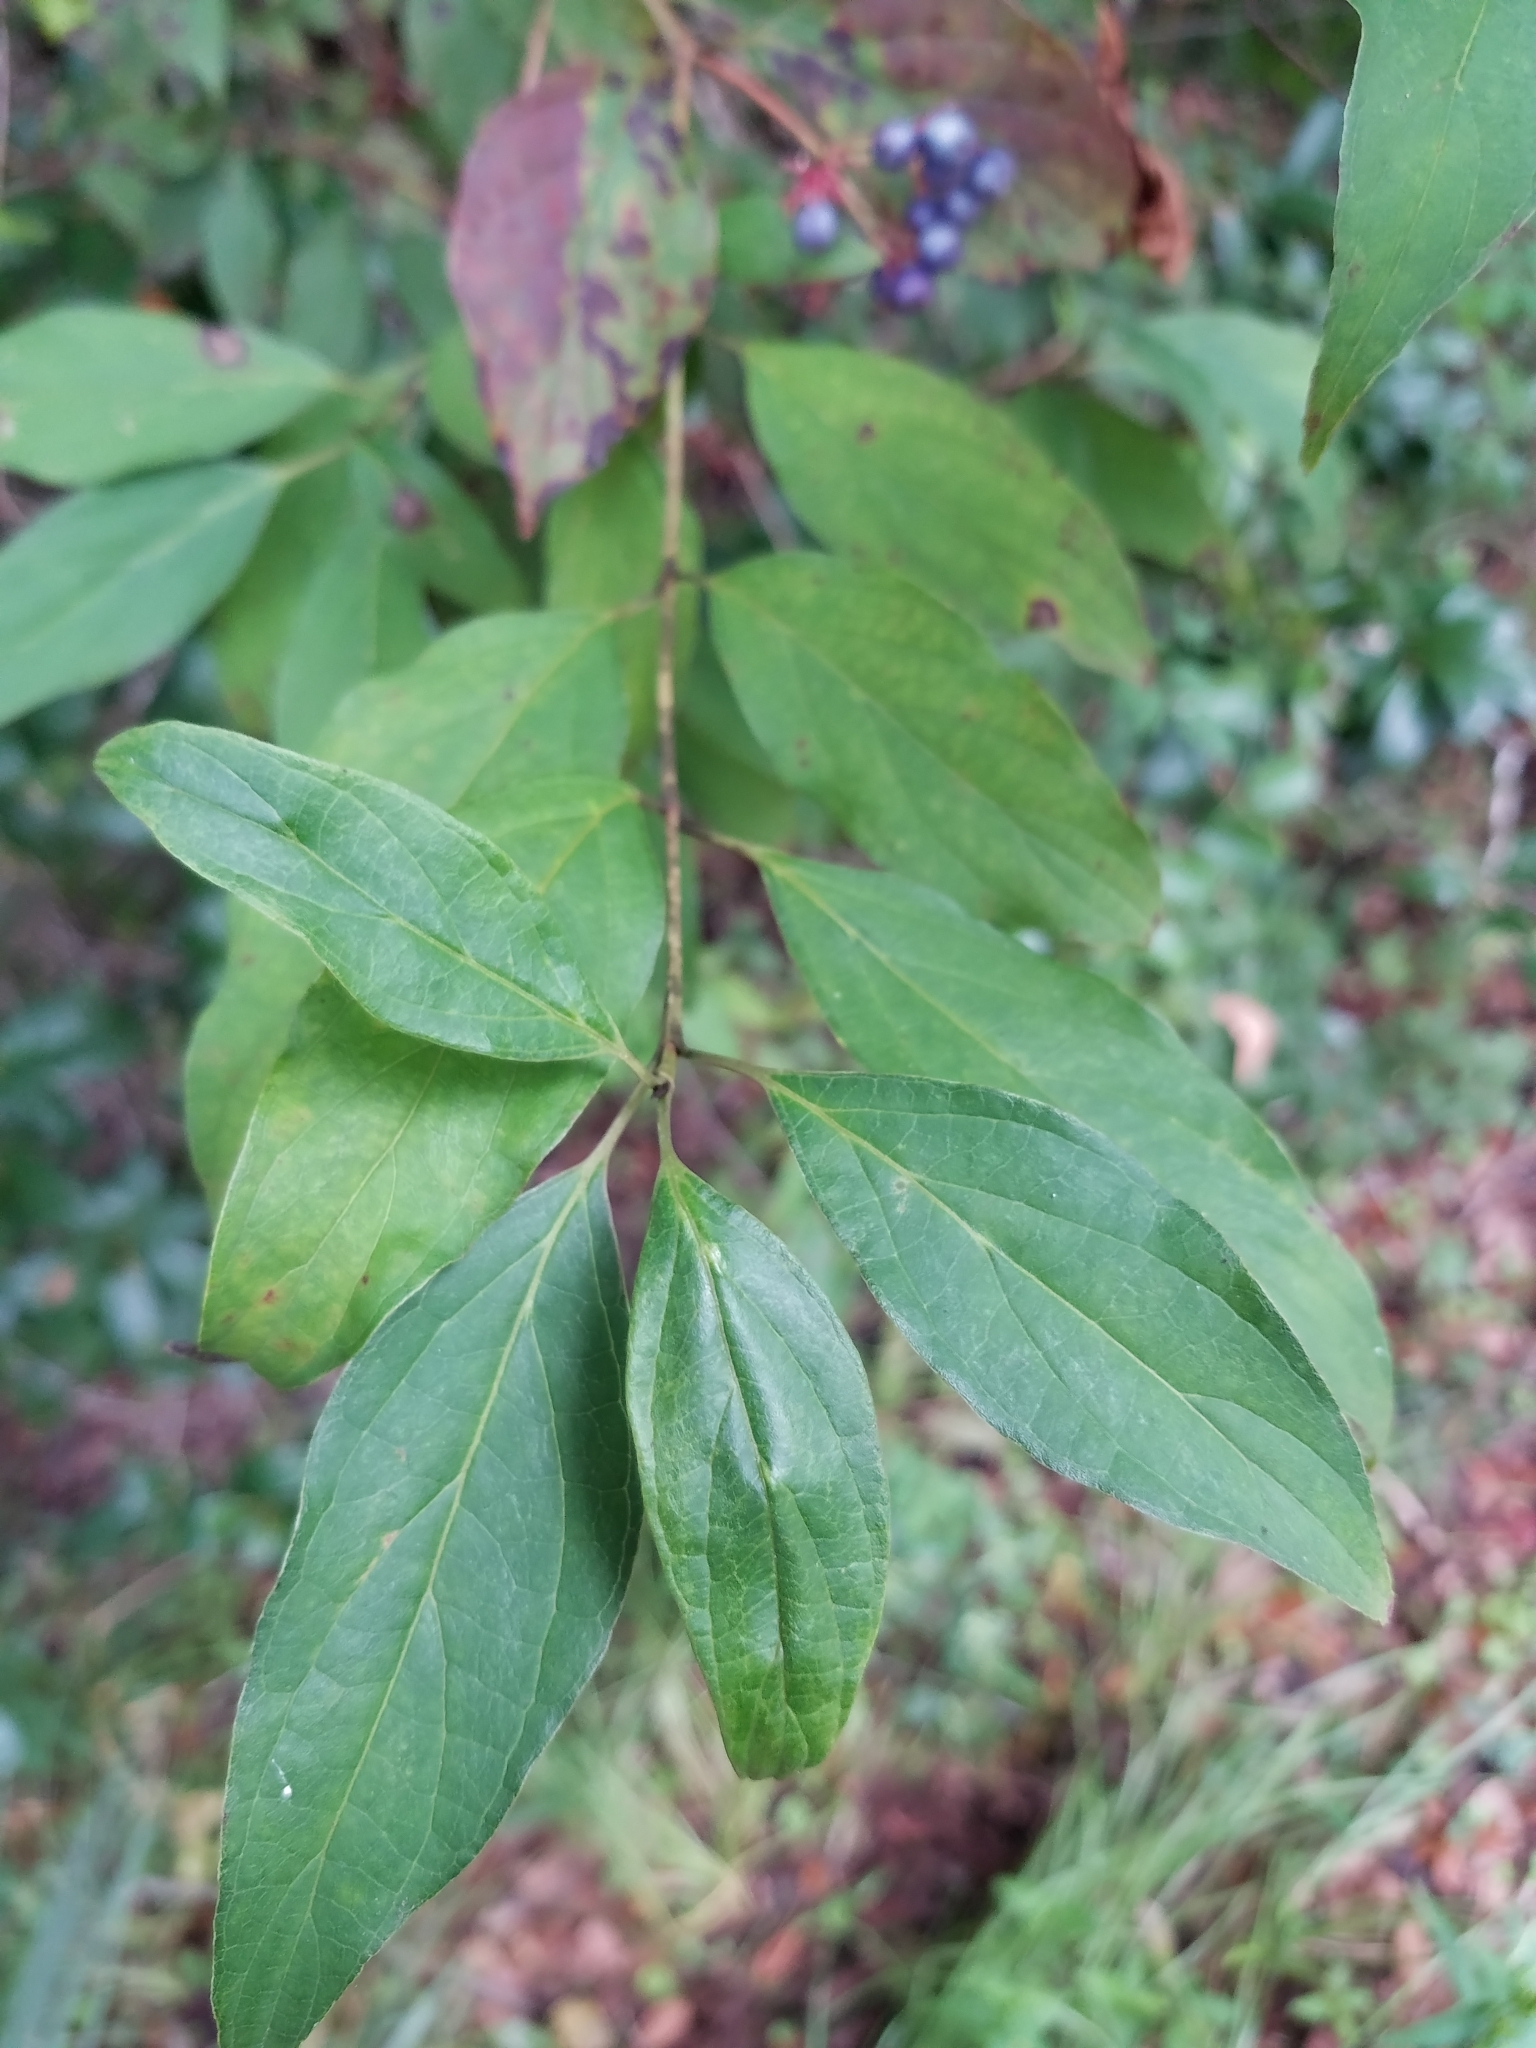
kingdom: Plantae
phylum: Tracheophyta
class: Magnoliopsida
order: Cornales
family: Cornaceae
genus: Cornus
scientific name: Cornus foemina
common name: Swamp dogwood
